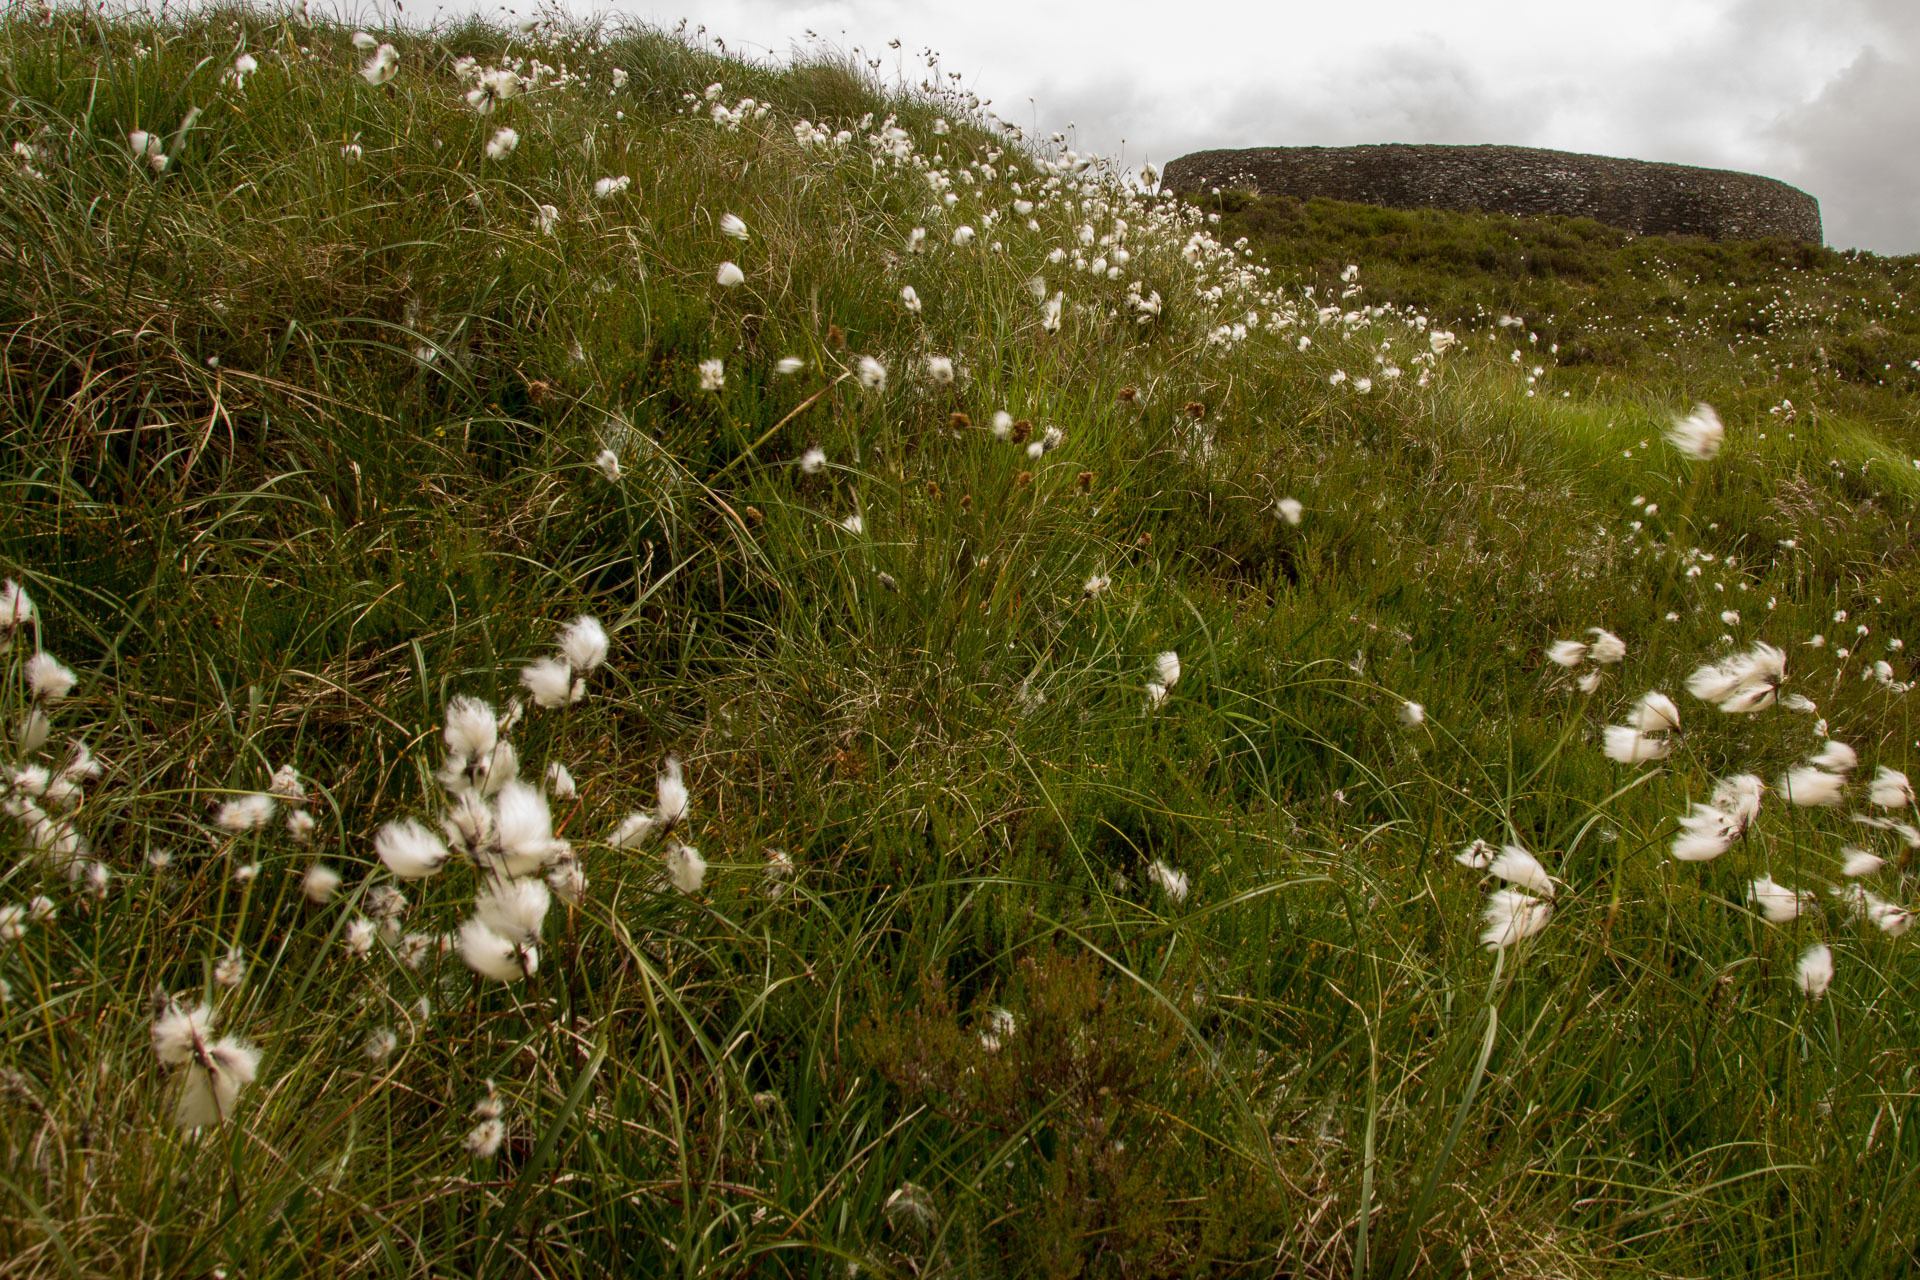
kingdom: Plantae
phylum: Tracheophyta
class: Liliopsida
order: Poales
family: Cyperaceae
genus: Eriophorum
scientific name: Eriophorum vaginatum
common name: Hare's-tail cottongrass
